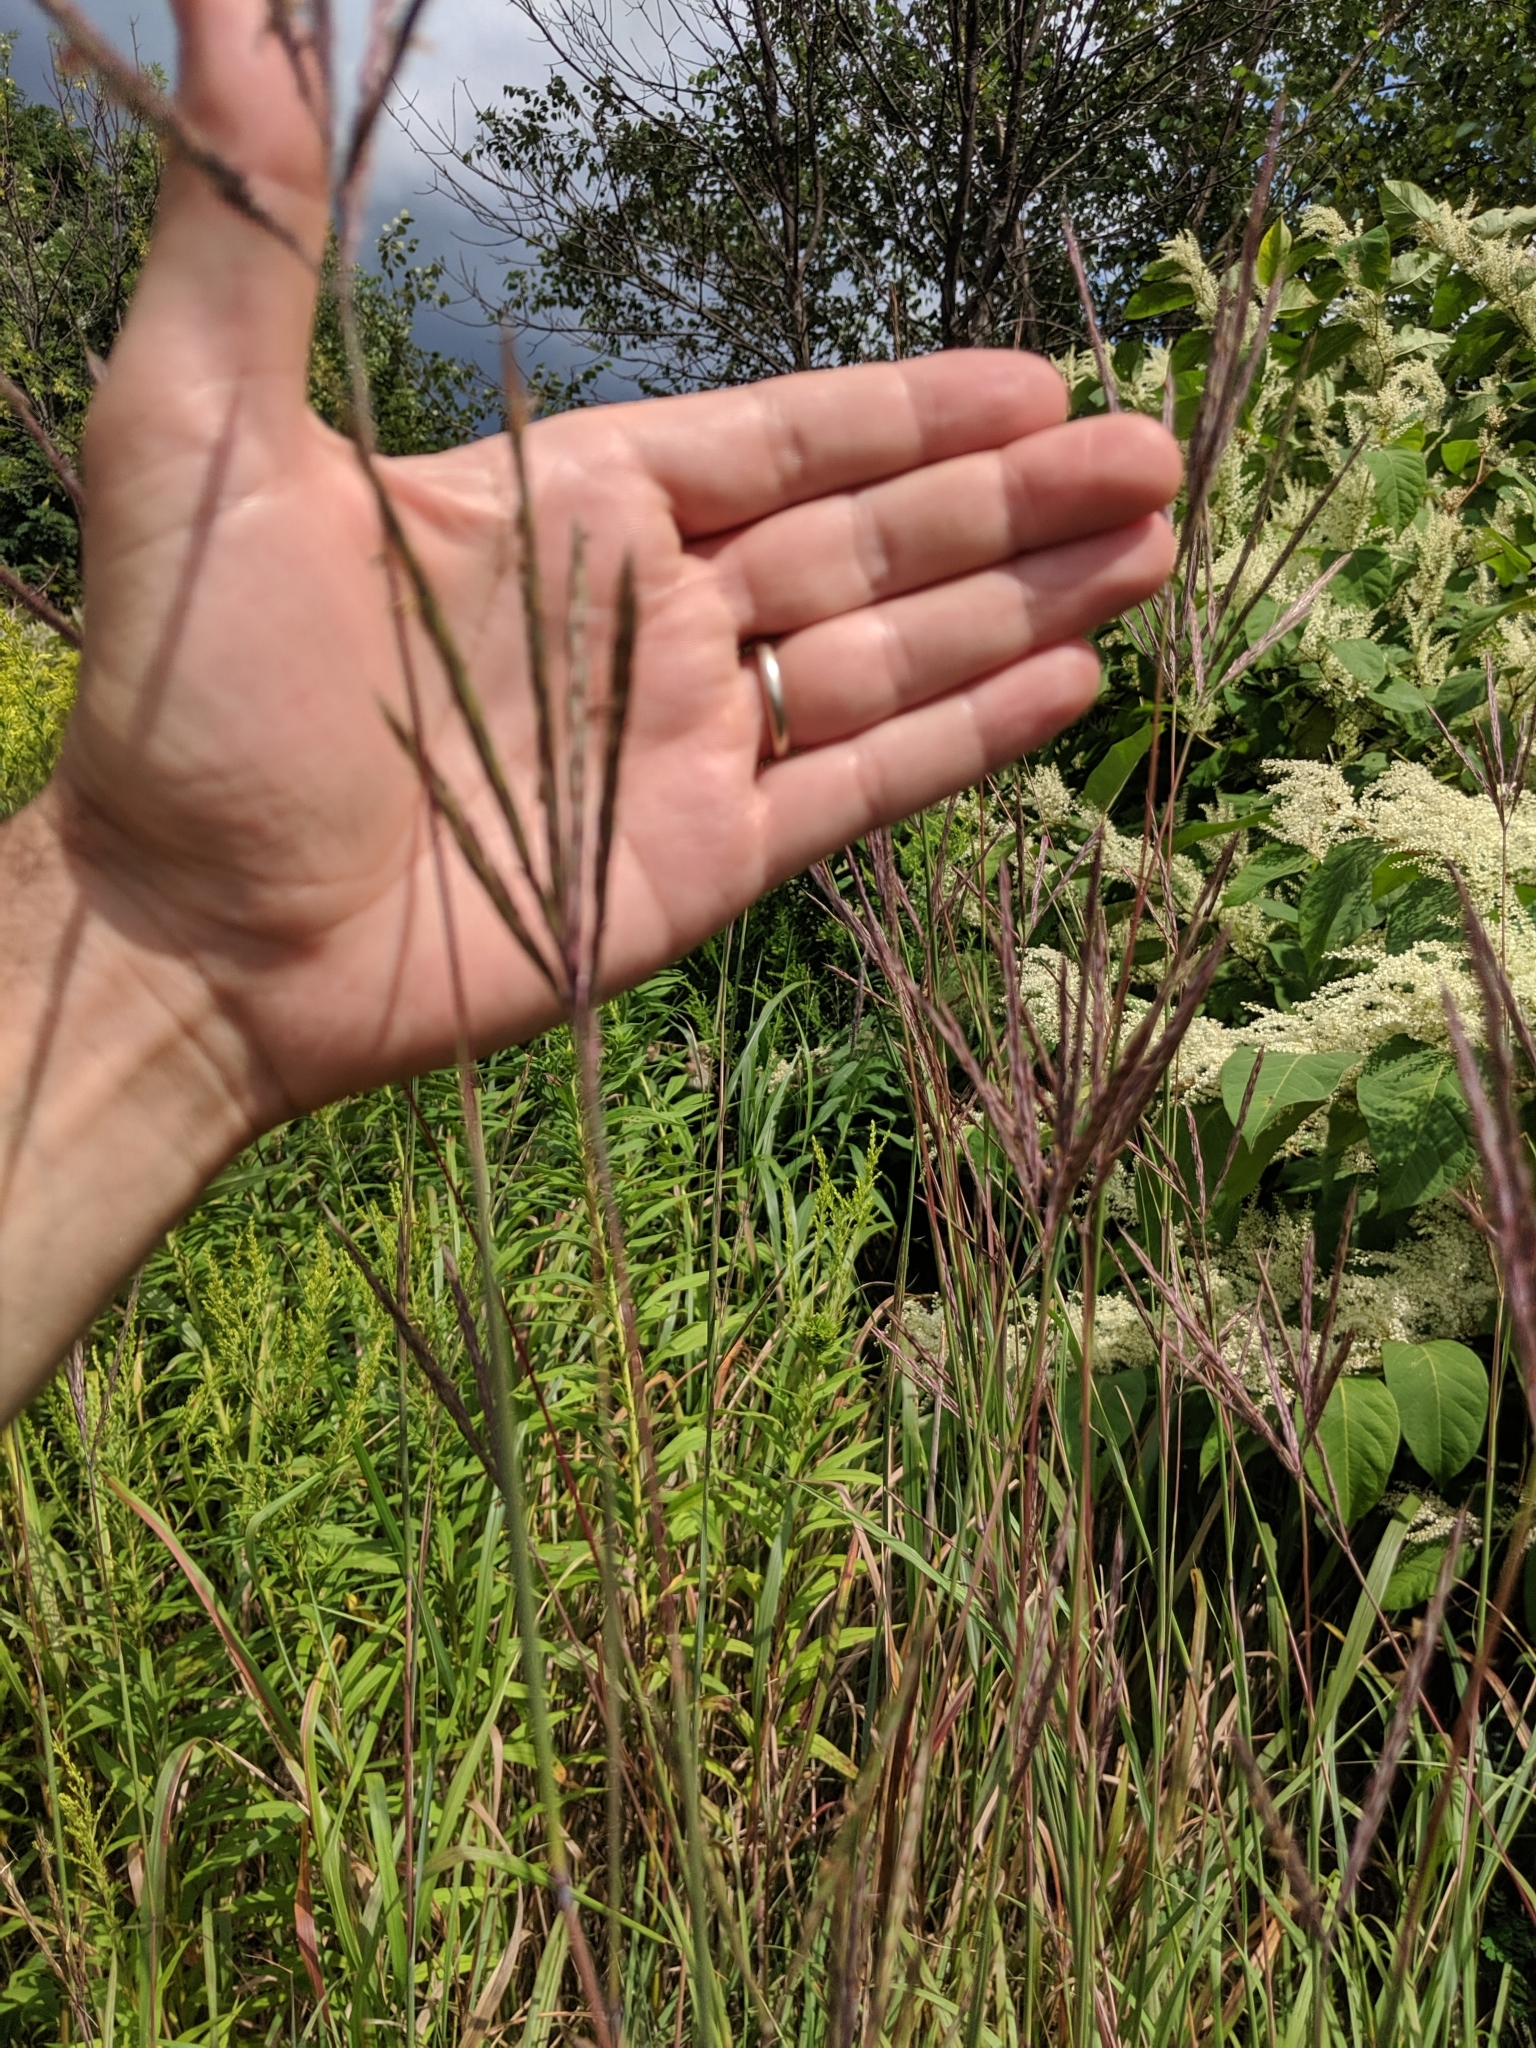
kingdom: Plantae
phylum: Tracheophyta
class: Liliopsida
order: Poales
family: Poaceae
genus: Andropogon
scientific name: Andropogon gerardi
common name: Big bluestem
